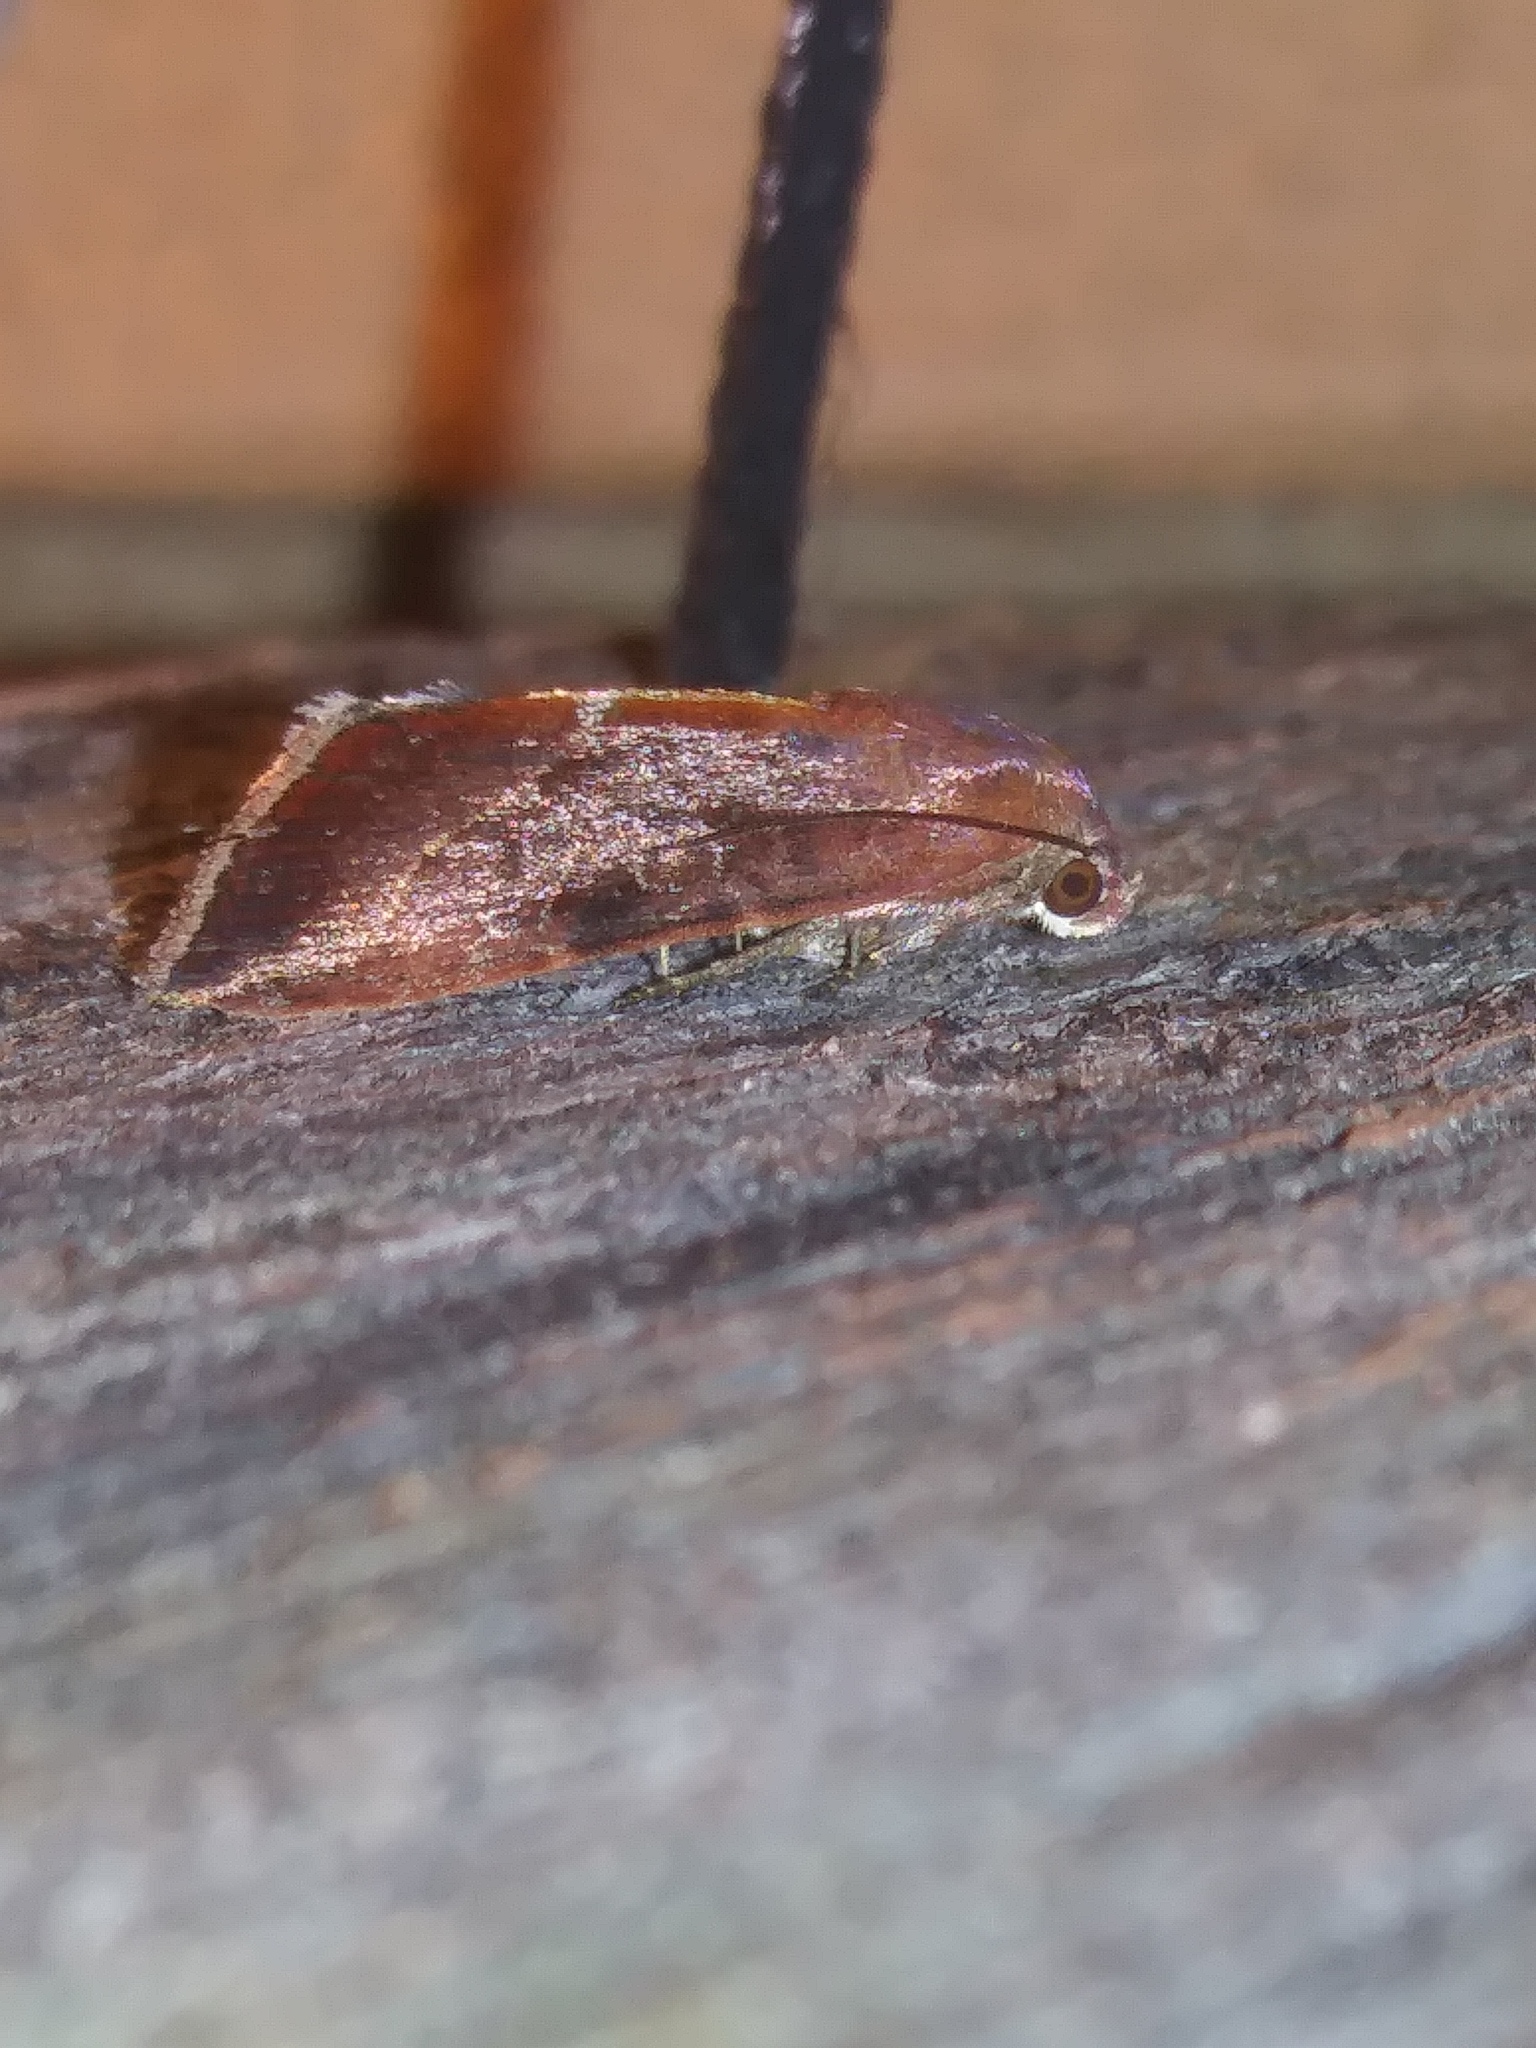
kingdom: Animalia
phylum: Arthropoda
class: Insecta
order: Lepidoptera
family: Noctuidae
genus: Galgula
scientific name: Galgula partita
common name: Wedgeling
